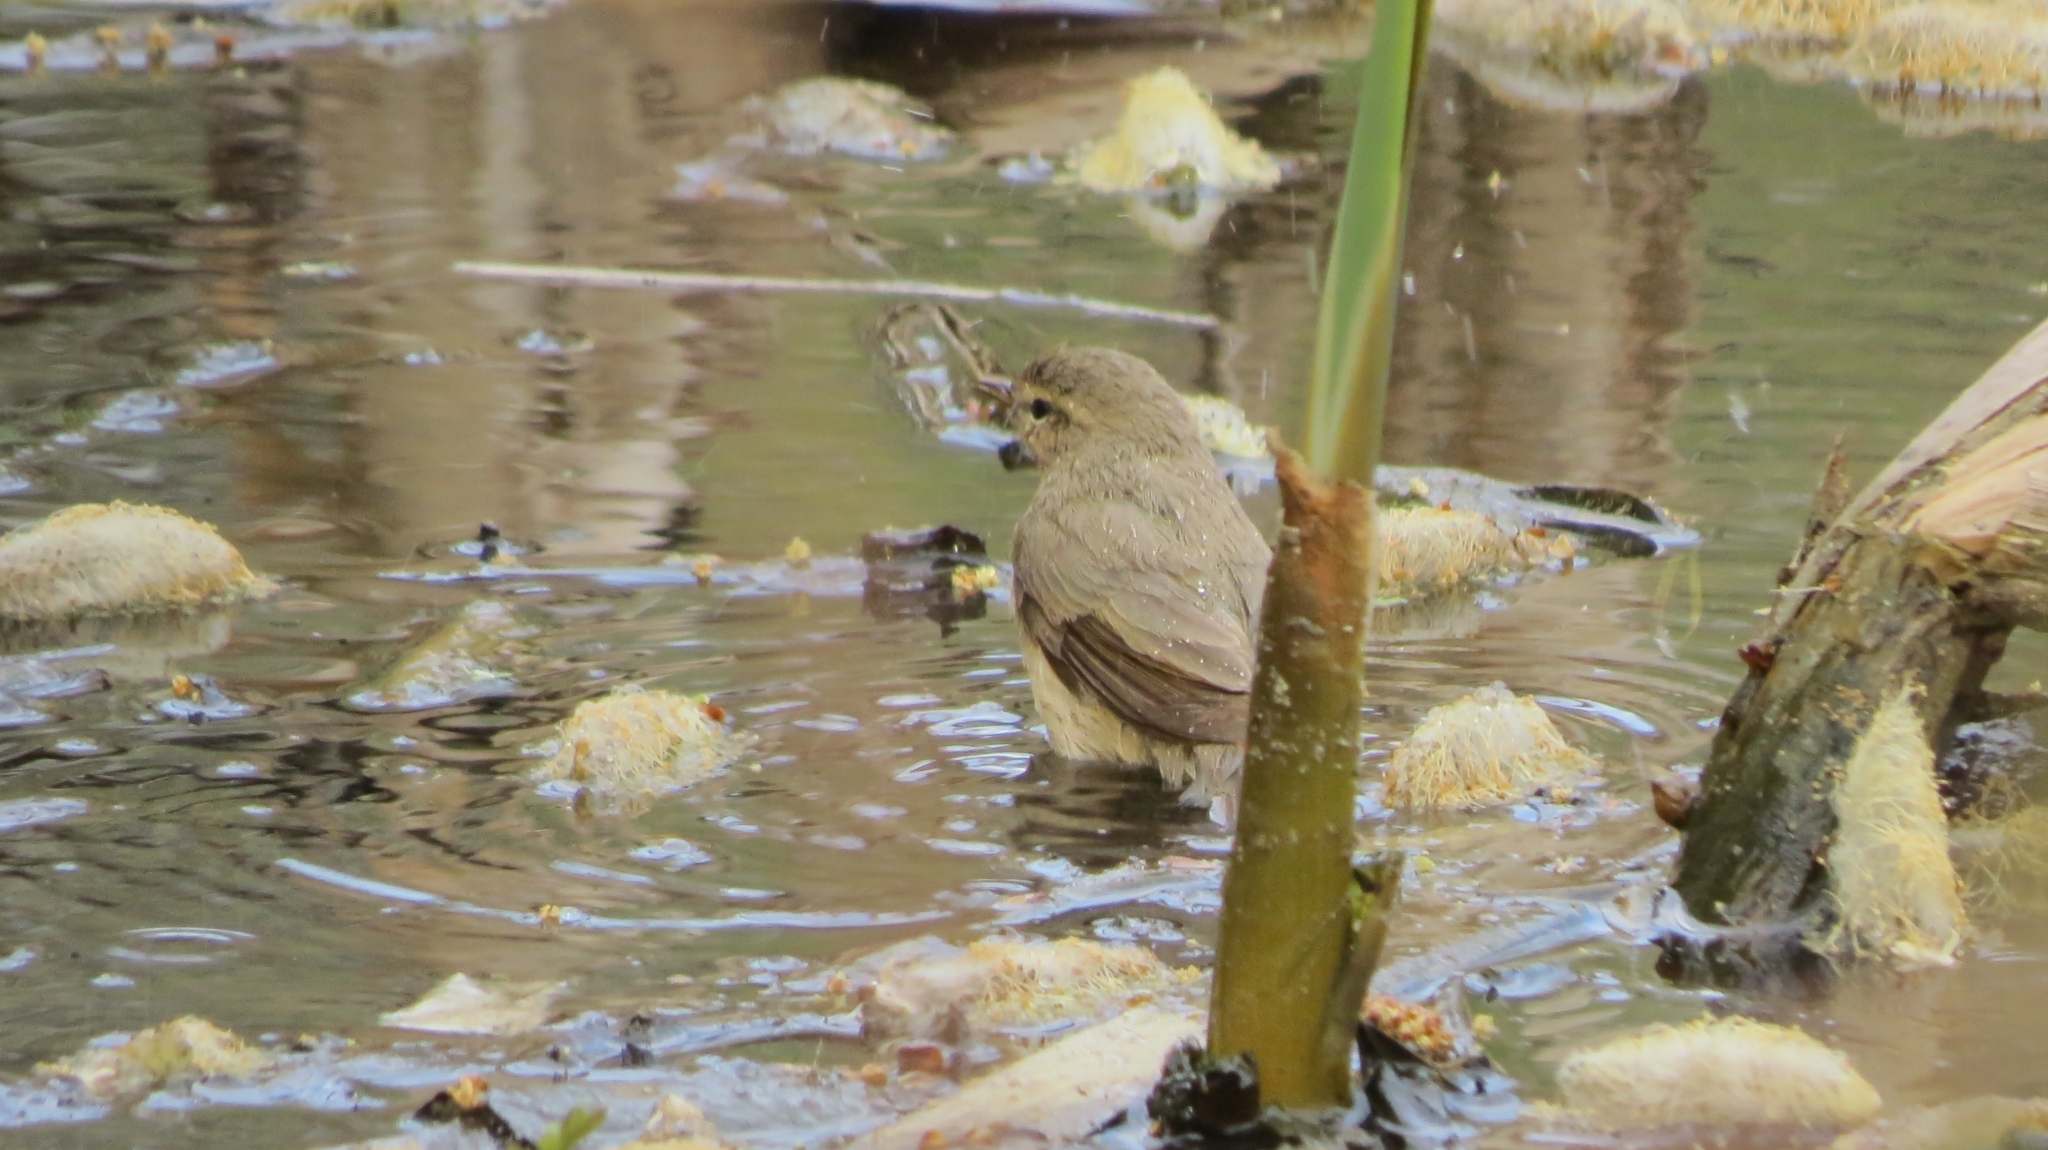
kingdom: Animalia
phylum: Chordata
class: Aves
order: Passeriformes
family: Phylloscopidae
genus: Phylloscopus
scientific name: Phylloscopus collybita
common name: Common chiffchaff
